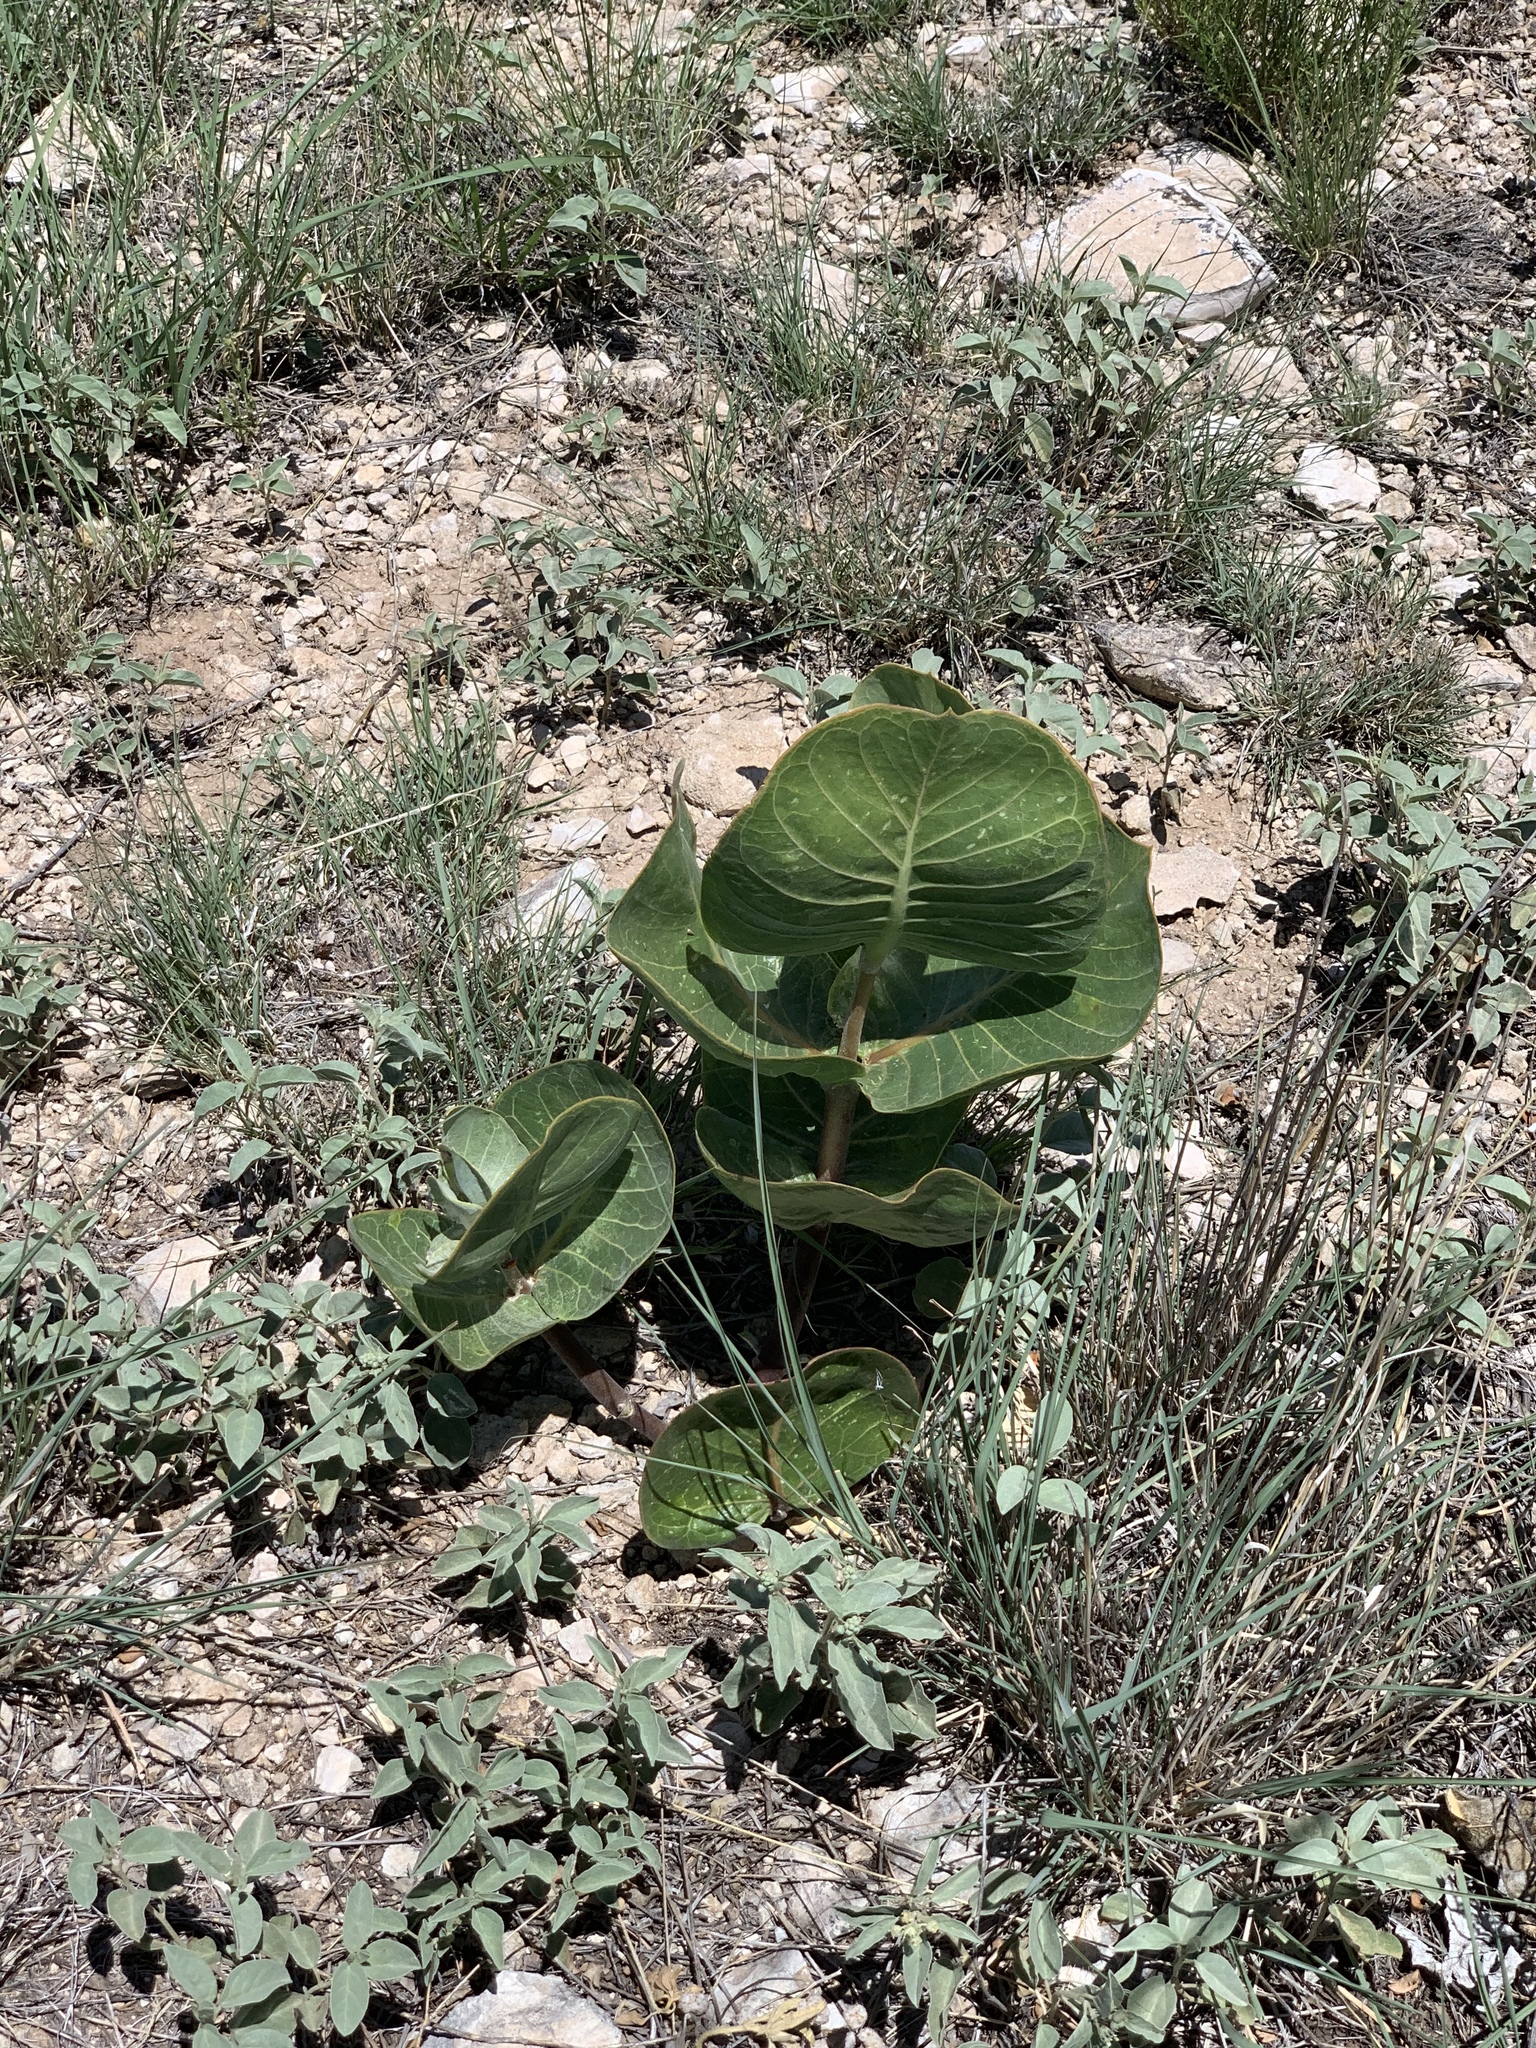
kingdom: Plantae
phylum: Tracheophyta
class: Magnoliopsida
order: Gentianales
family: Apocynaceae
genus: Asclepias
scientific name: Asclepias latifolia
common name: Broadleaf milkweed
